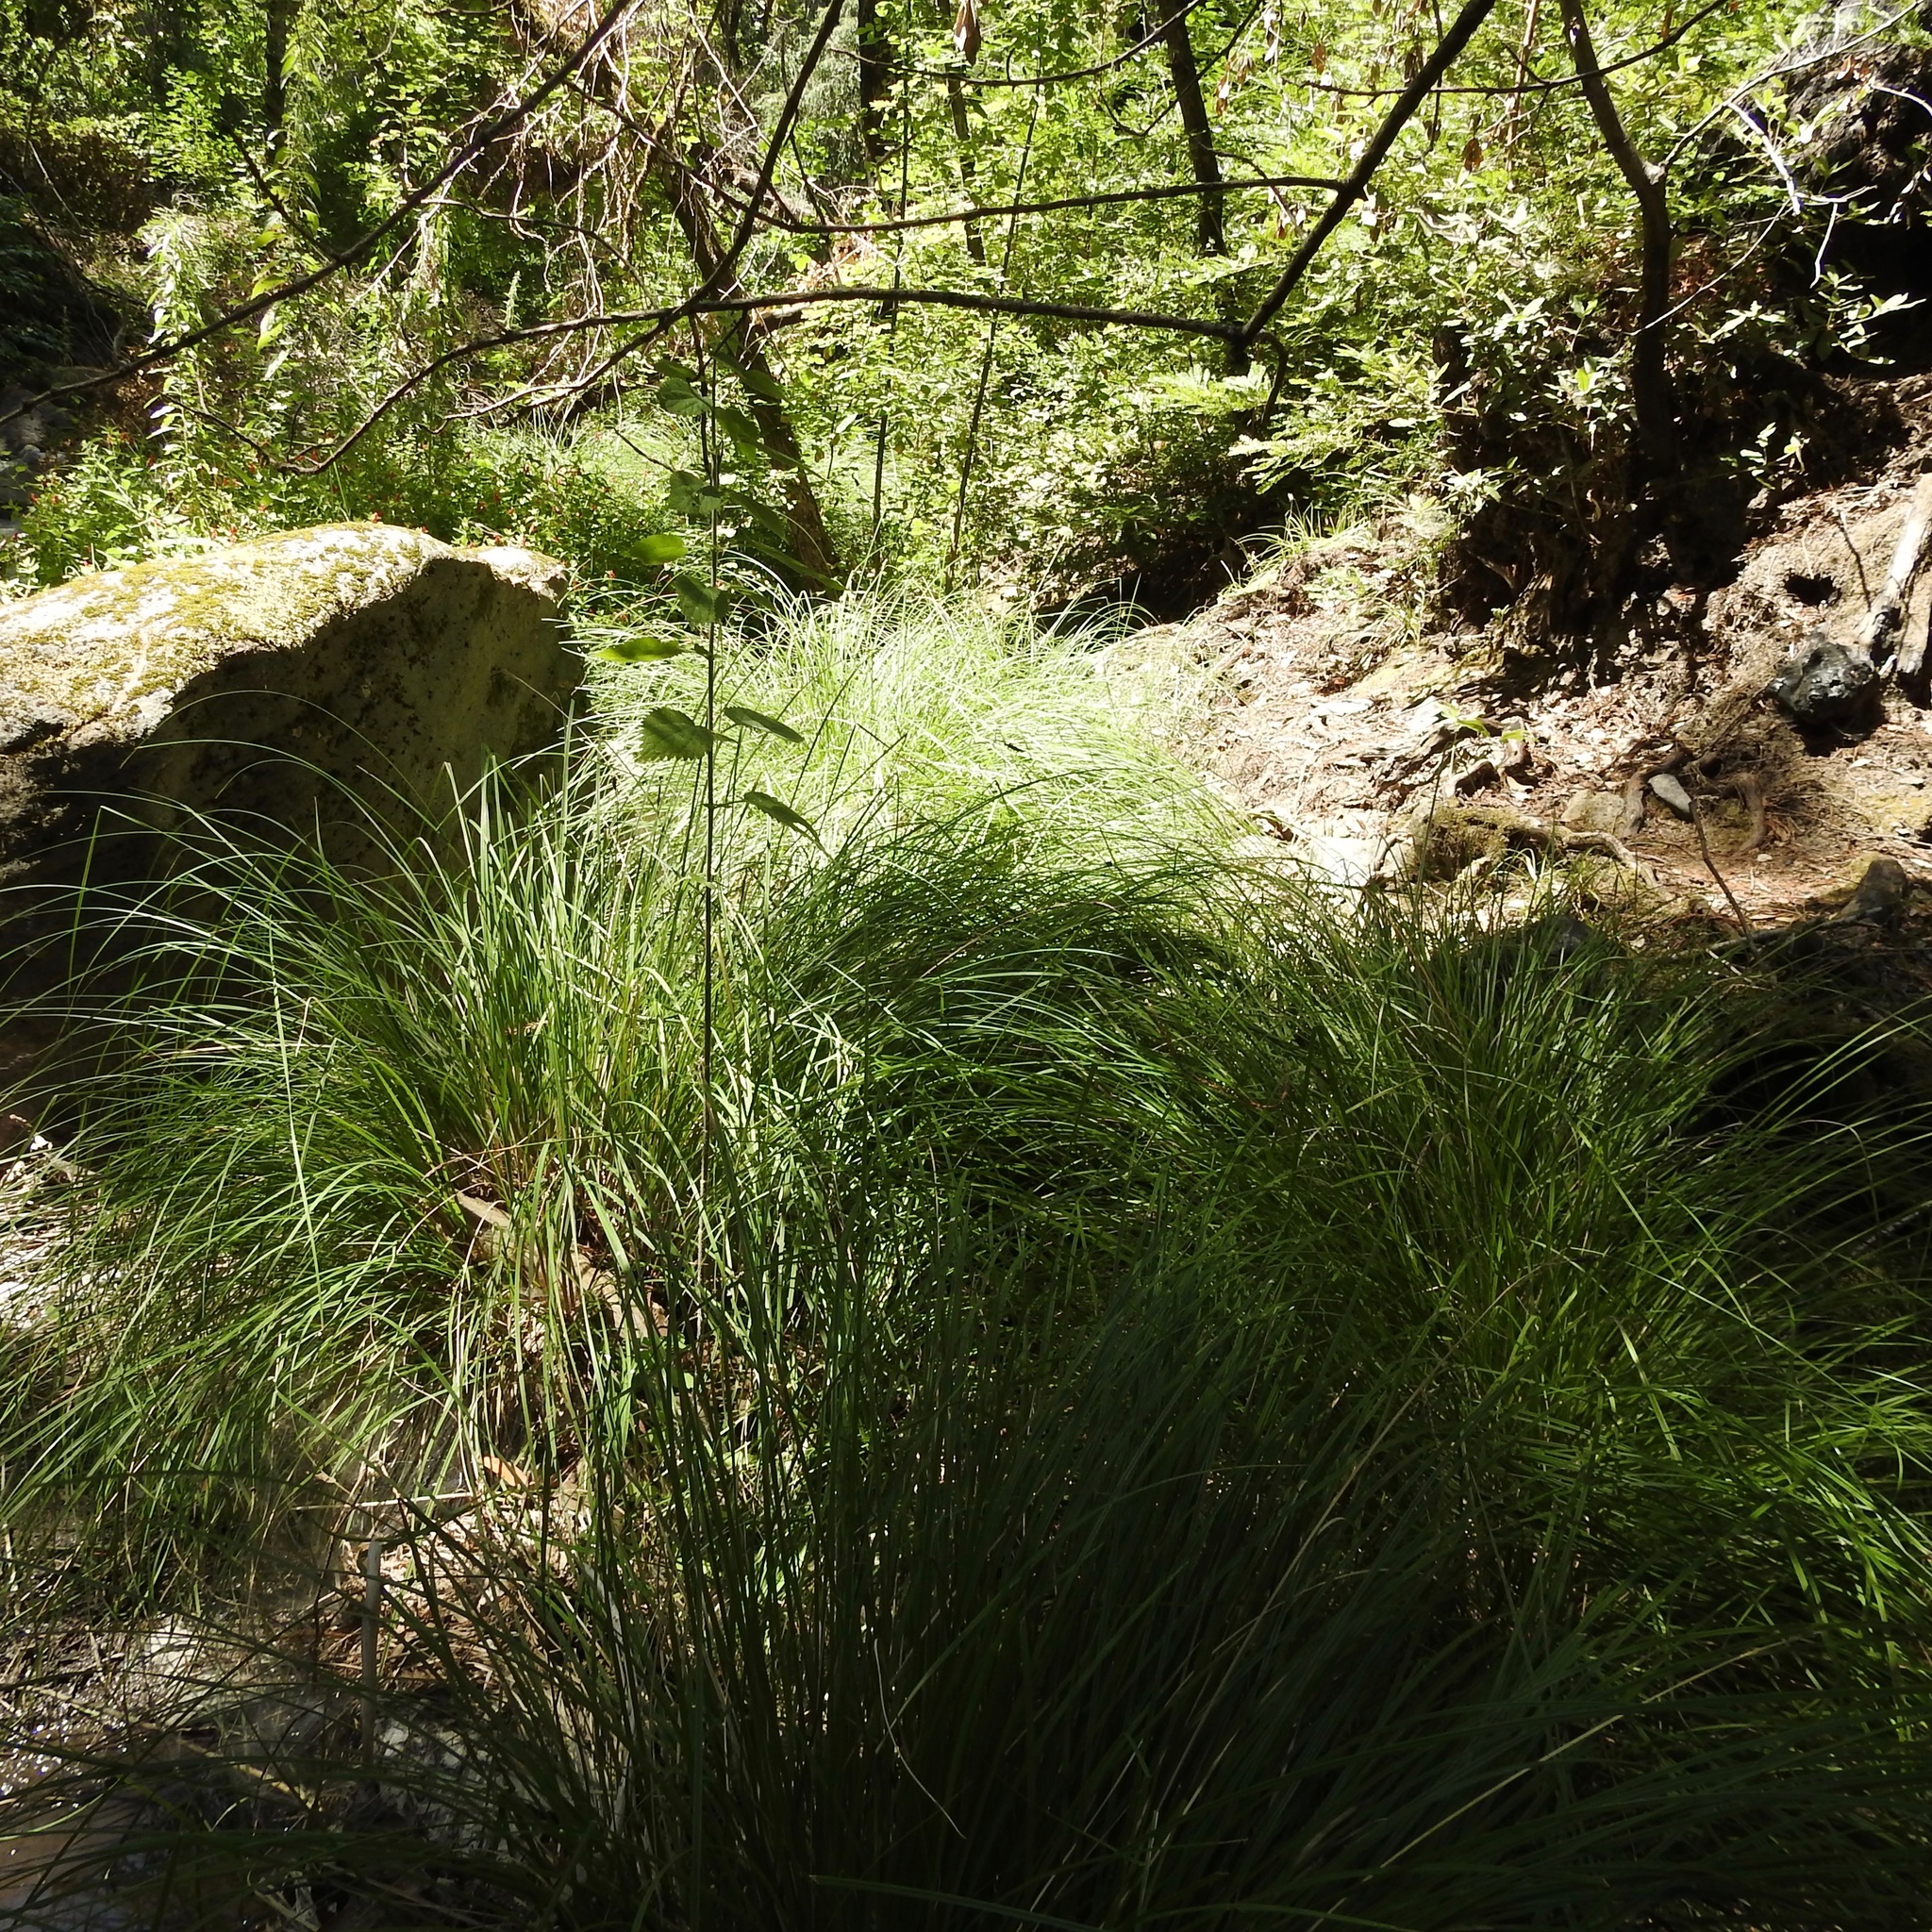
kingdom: Plantae
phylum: Tracheophyta
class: Liliopsida
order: Poales
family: Cyperaceae
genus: Carex
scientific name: Carex nudata
